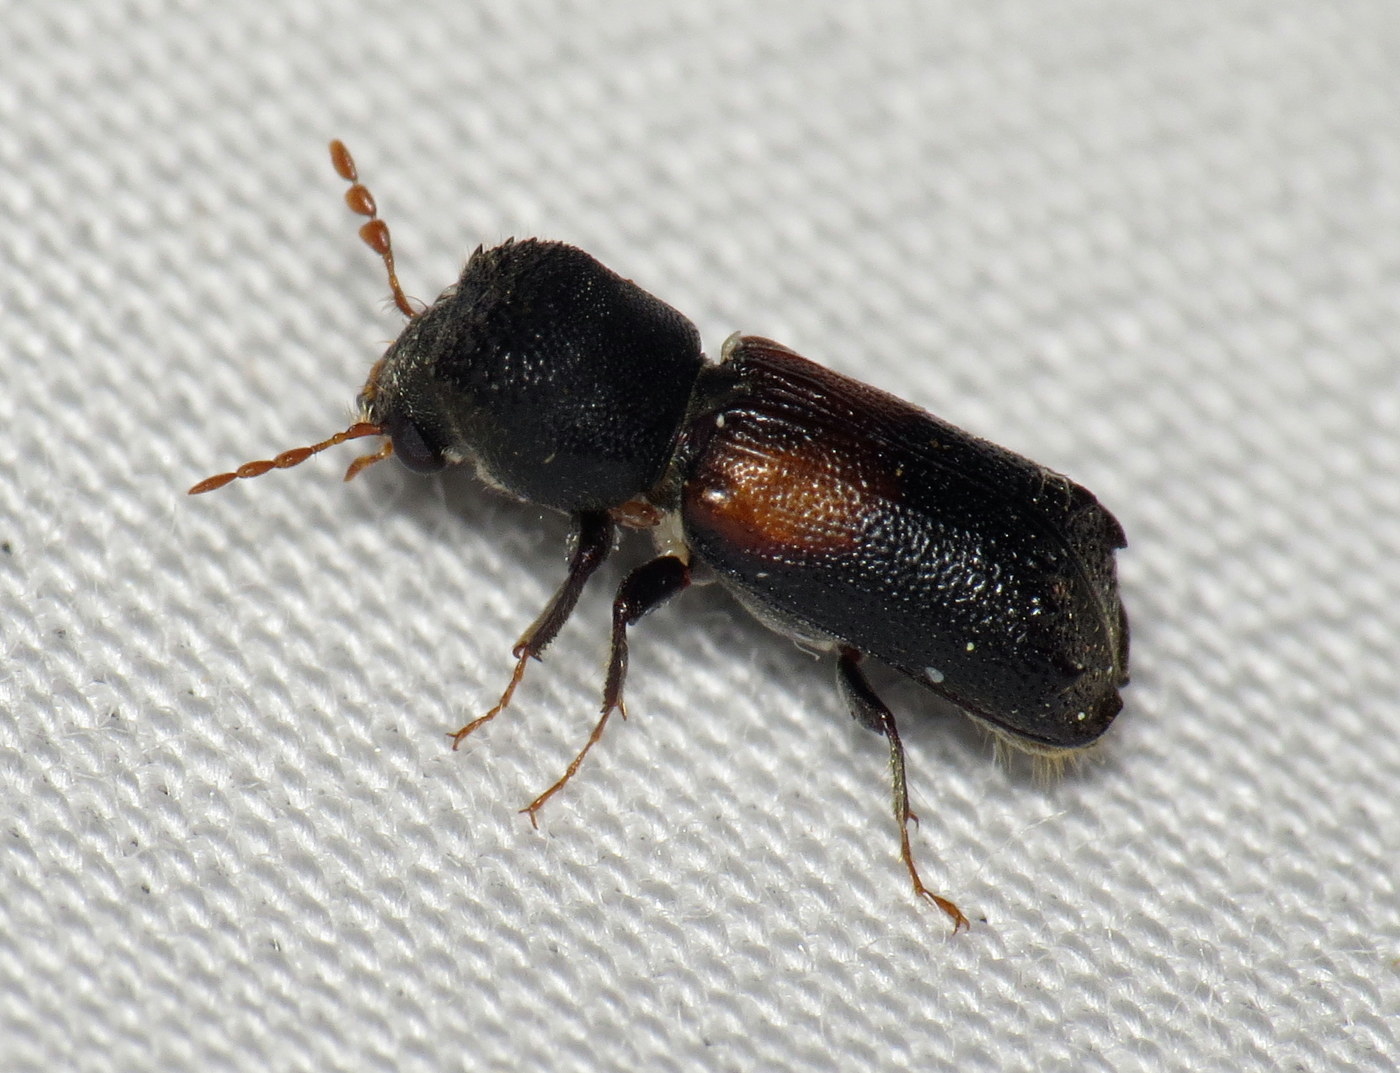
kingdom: Animalia
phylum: Arthropoda
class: Insecta
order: Coleoptera
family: Bostrichidae
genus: Xylobiops
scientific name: Xylobiops basilaris
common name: Red-shouldered bostrichid
